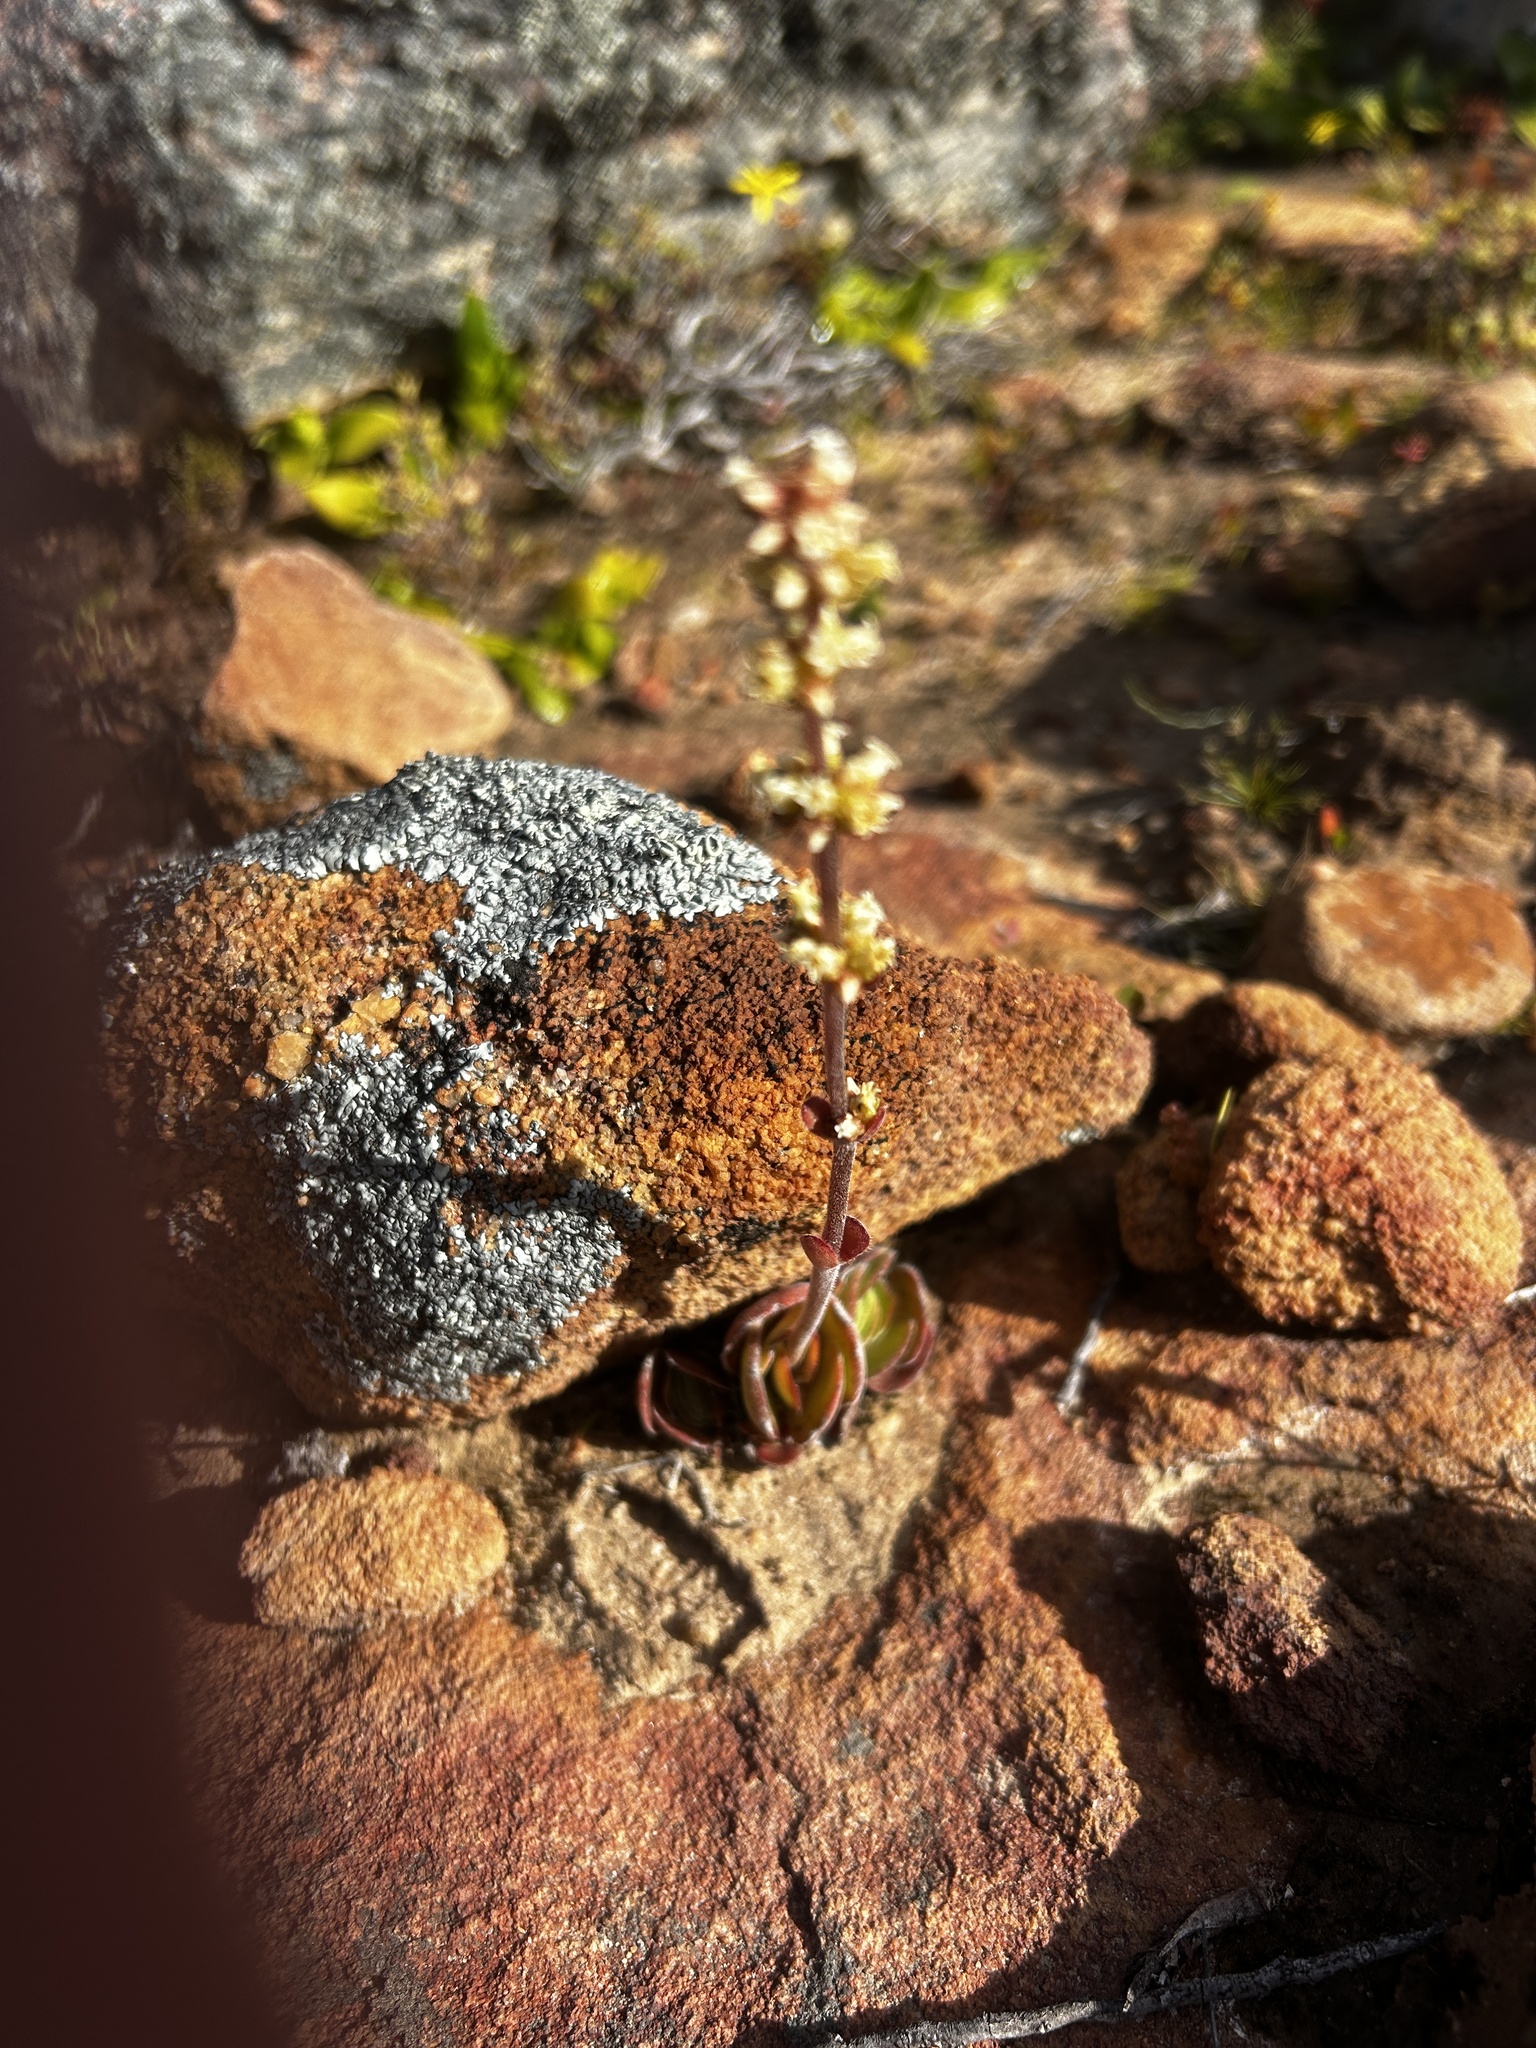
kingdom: Plantae
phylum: Tracheophyta
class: Magnoliopsida
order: Saxifragales
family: Crassulaceae
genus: Crassula
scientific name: Crassula tomentosa
